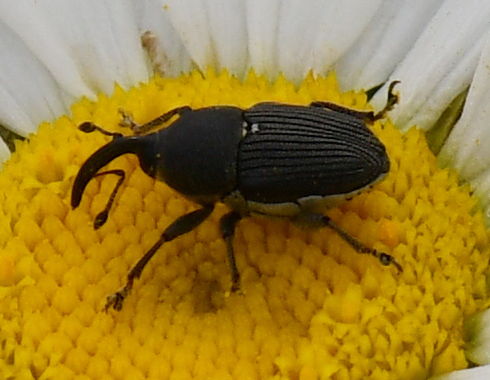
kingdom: Animalia
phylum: Arthropoda
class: Insecta
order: Coleoptera
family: Curculionidae
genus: Odontocorynus
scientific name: Odontocorynus salebrosus
